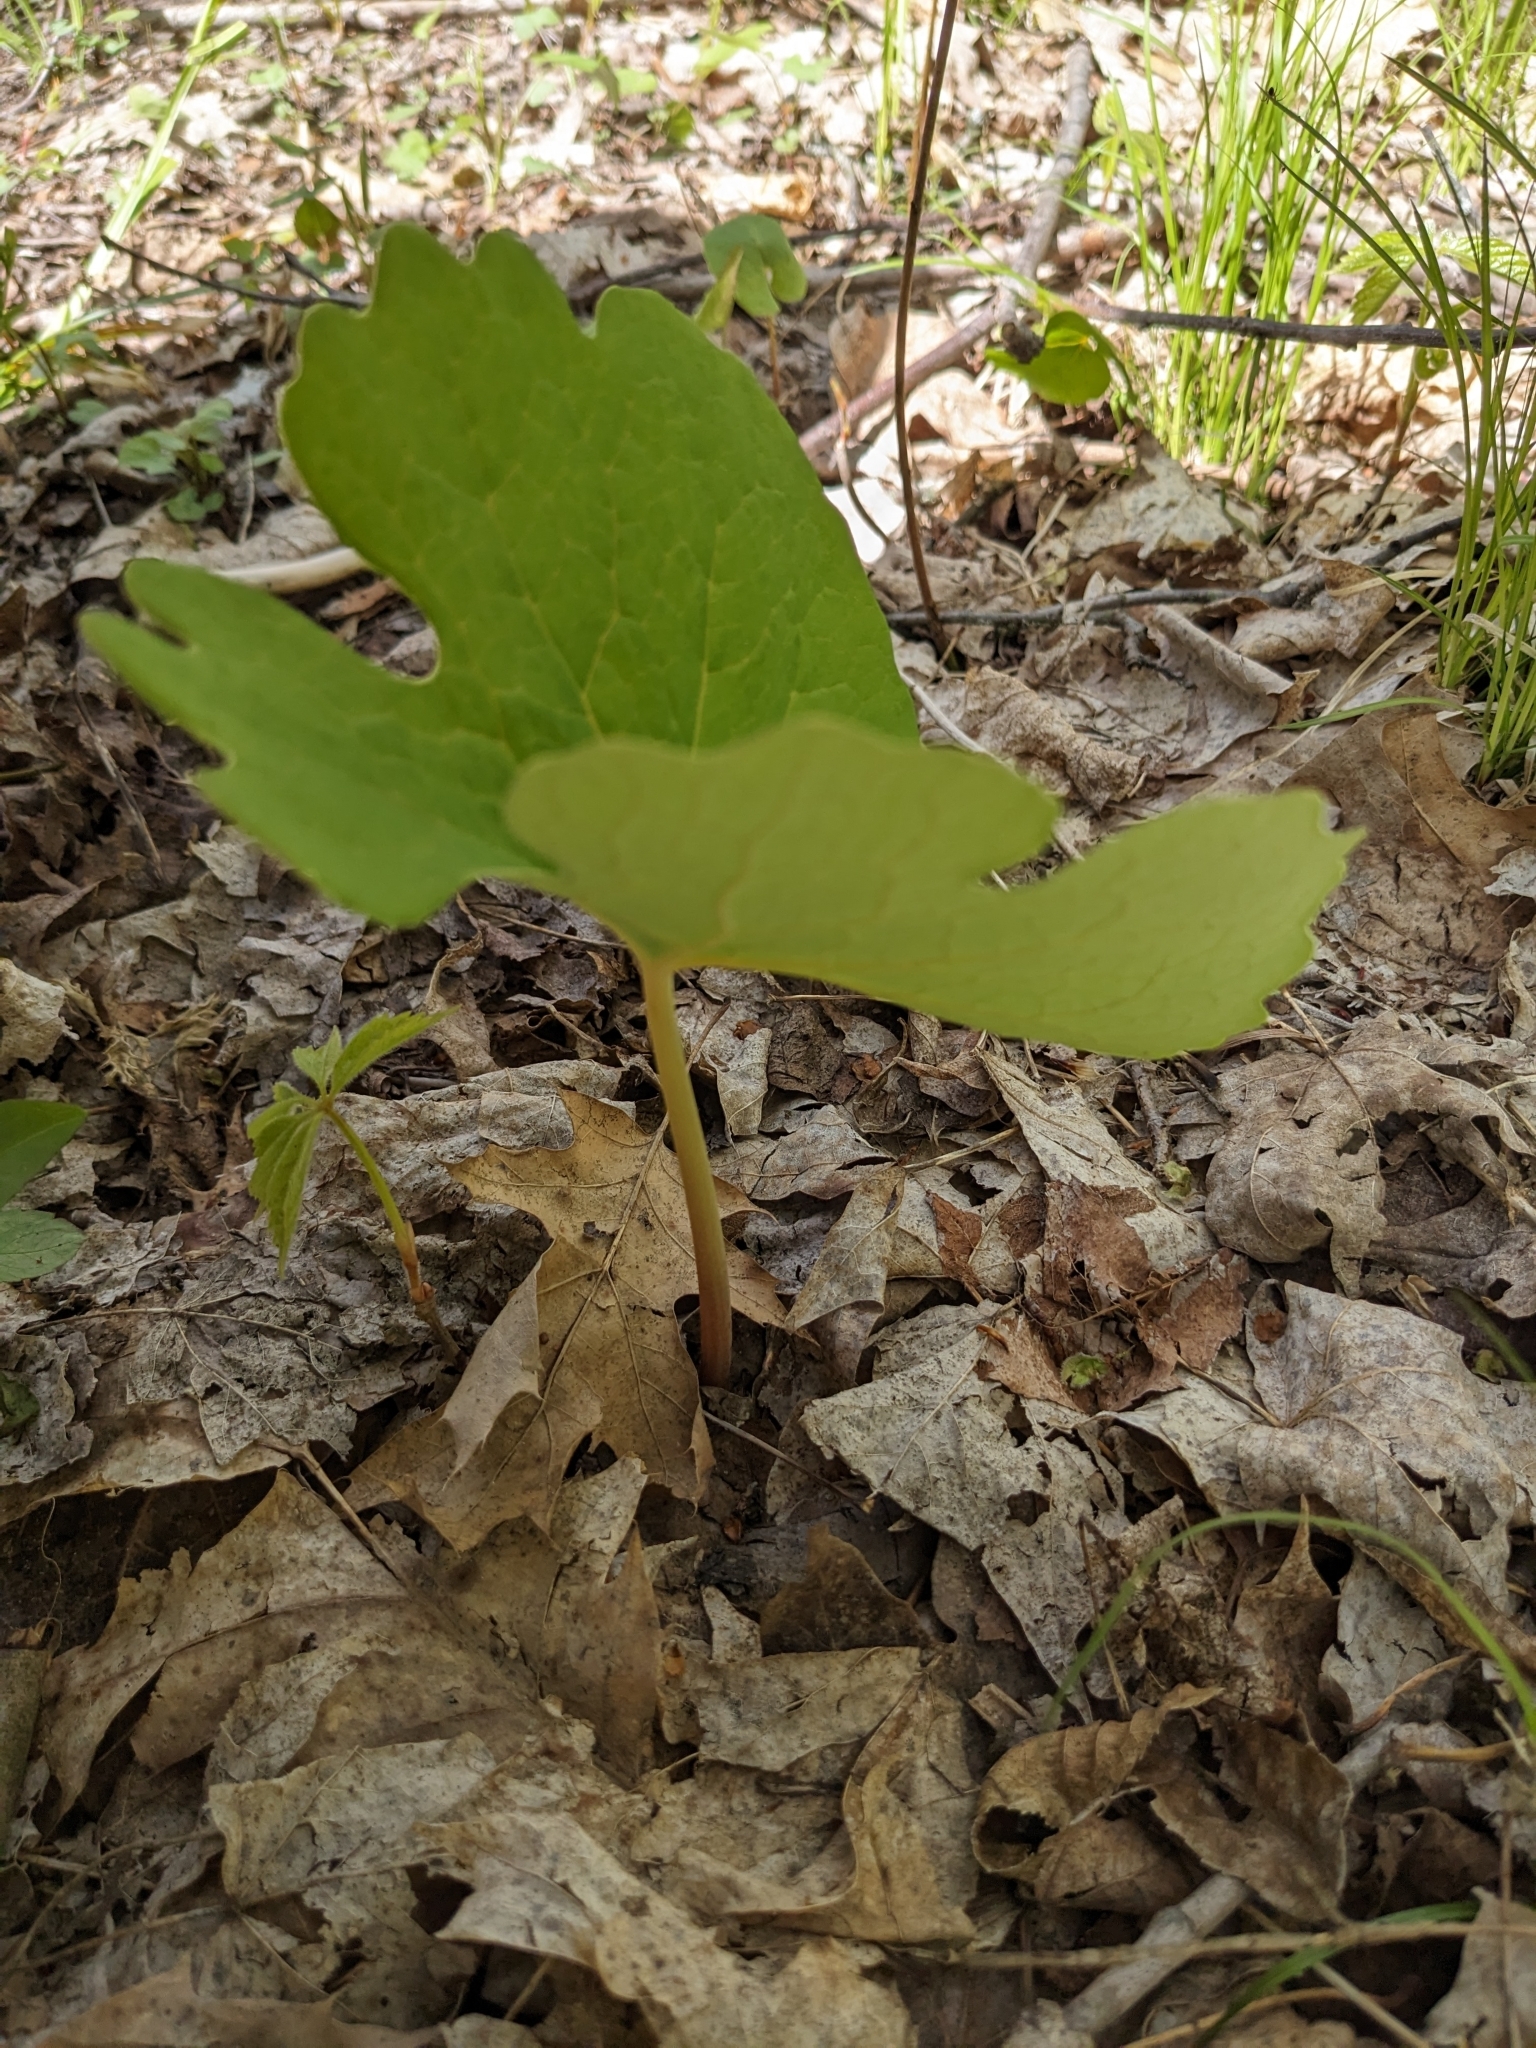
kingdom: Plantae
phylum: Tracheophyta
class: Magnoliopsida
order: Ranunculales
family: Papaveraceae
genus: Sanguinaria
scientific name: Sanguinaria canadensis
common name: Bloodroot
